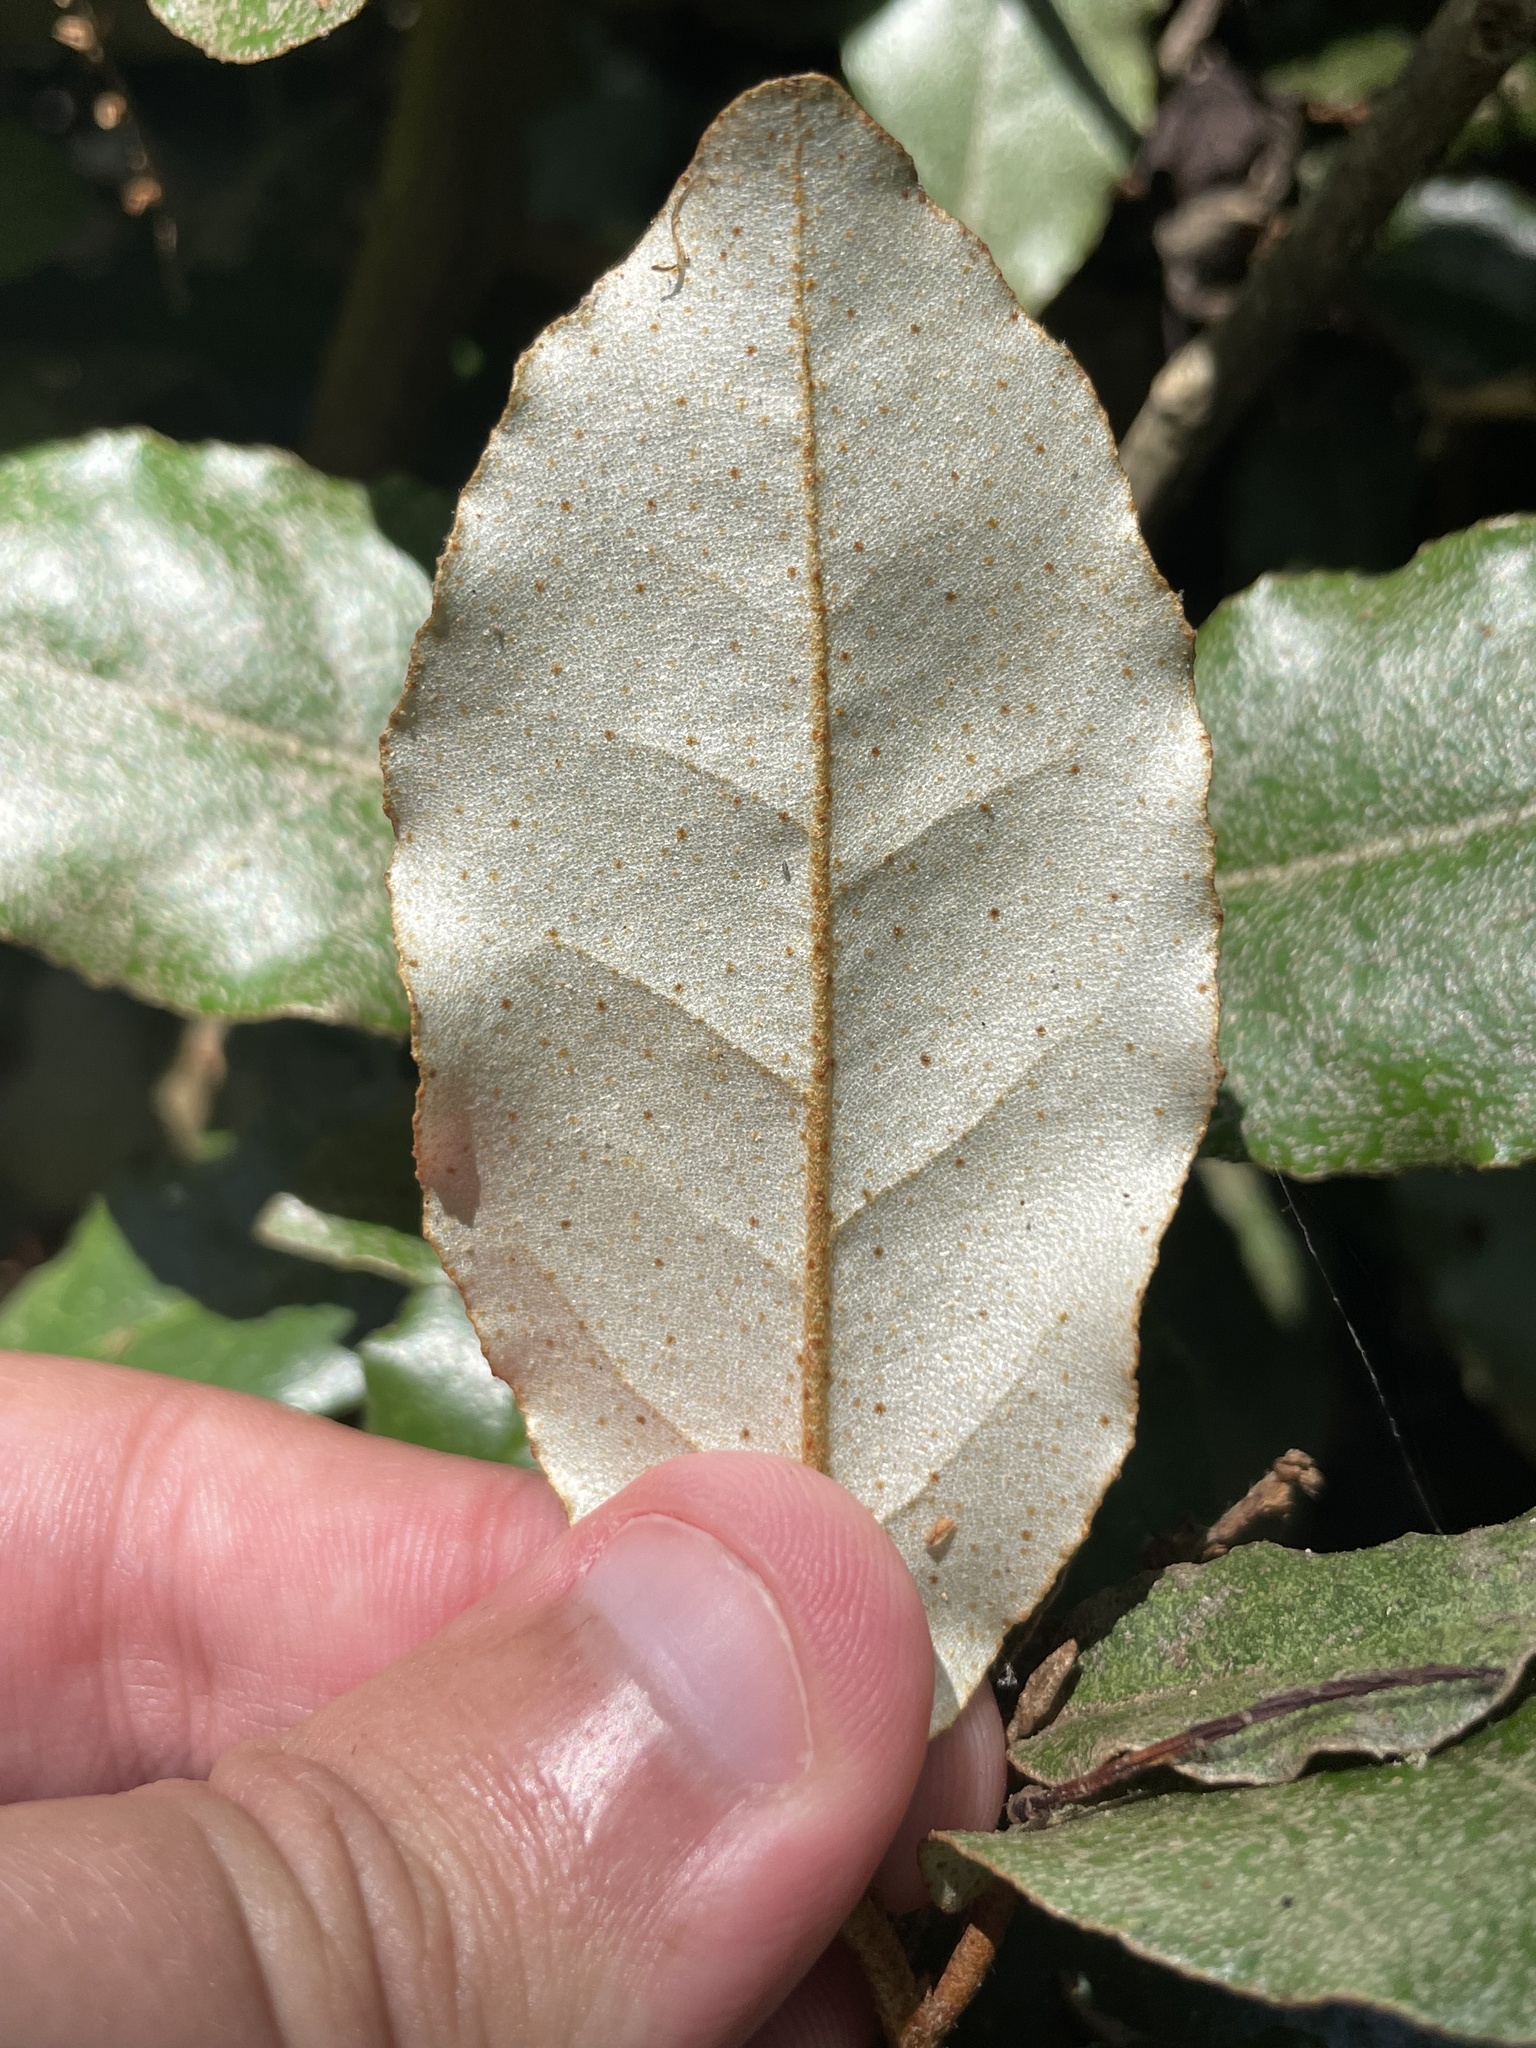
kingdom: Plantae
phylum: Tracheophyta
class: Magnoliopsida
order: Rosales
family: Elaeagnaceae
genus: Elaeagnus
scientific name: Elaeagnus pungens
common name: Spiny oleaster
